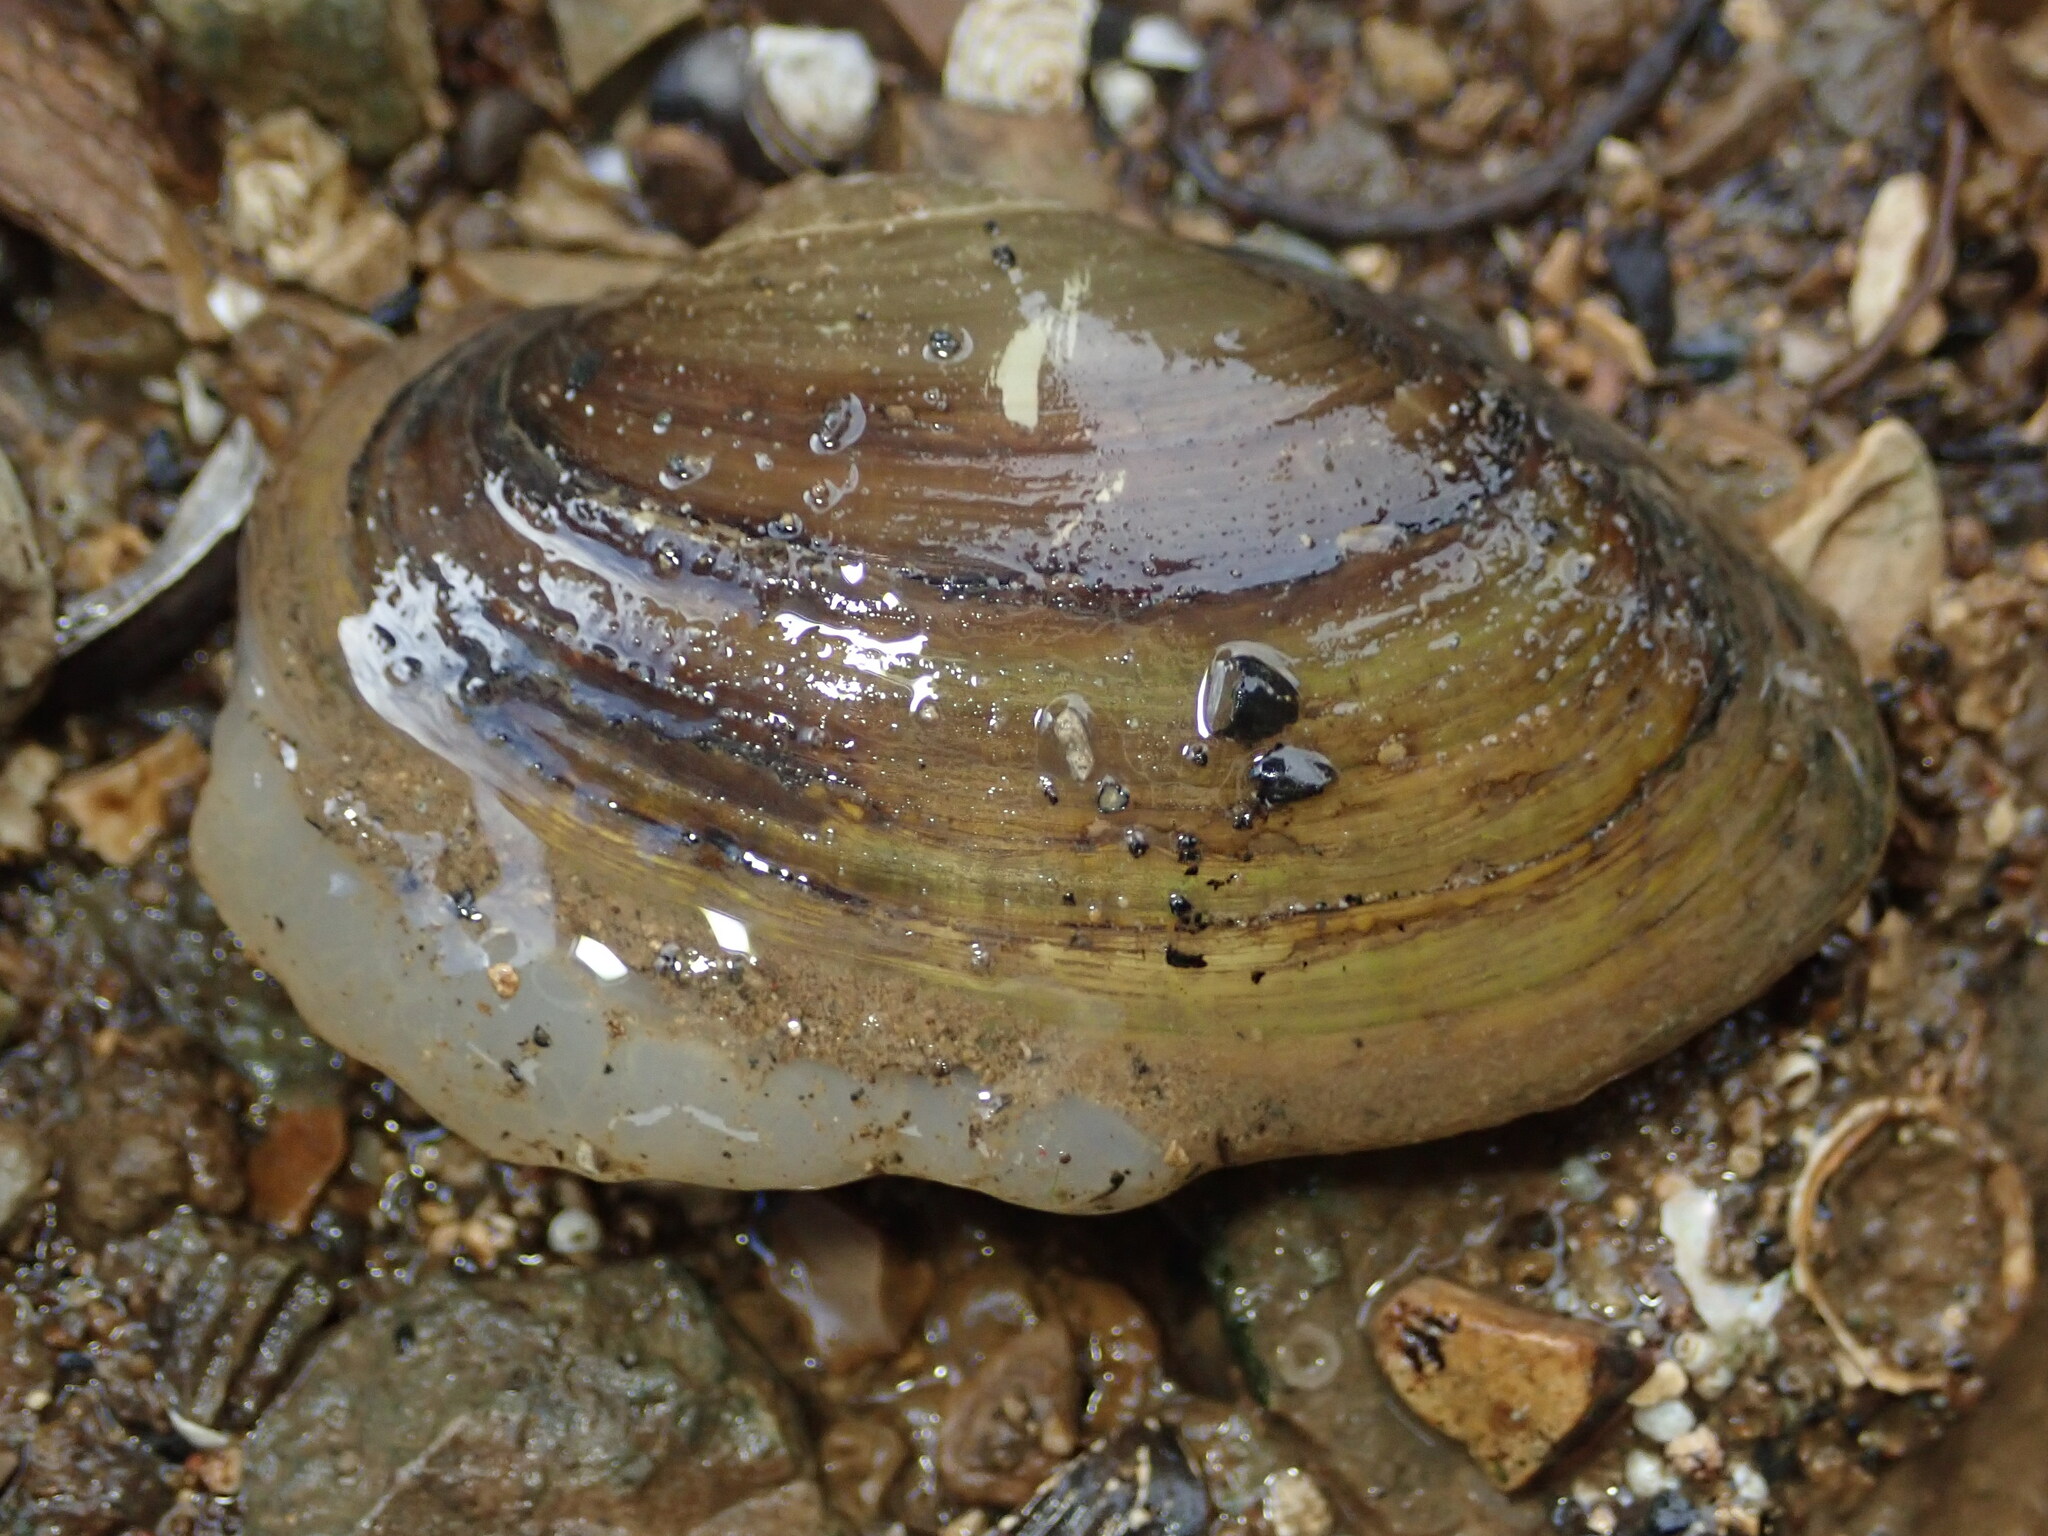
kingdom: Animalia
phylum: Mollusca
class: Bivalvia
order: Unionida
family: Unionidae
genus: Pyganodon
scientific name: Pyganodon grandis
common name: Giant floater
